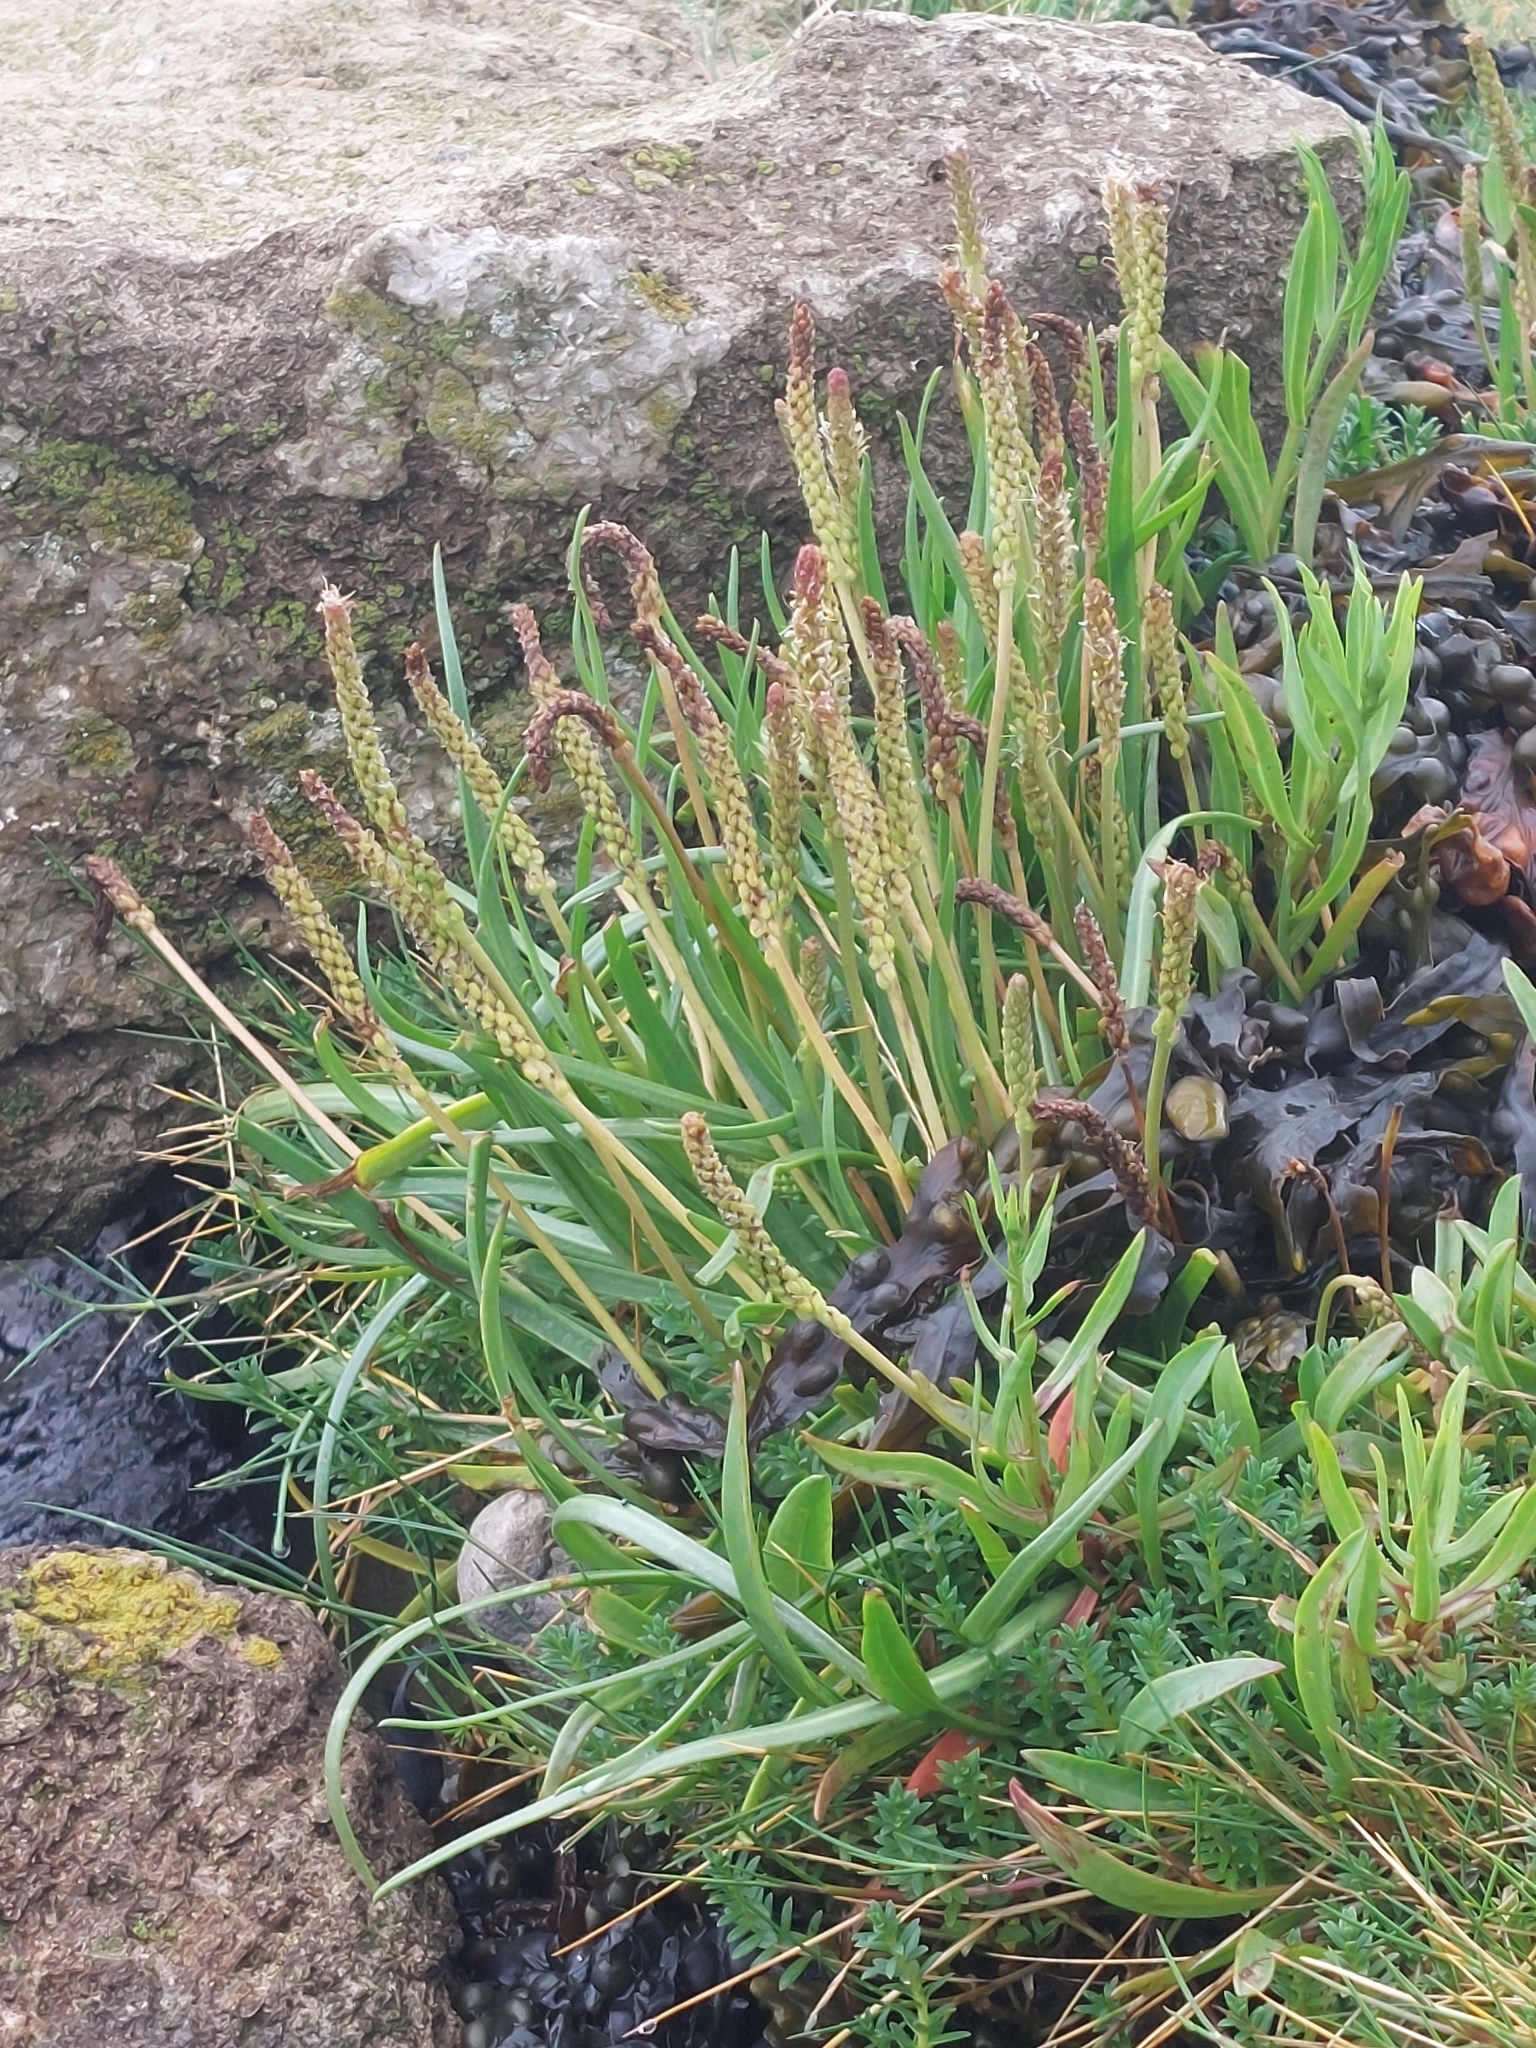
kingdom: Plantae
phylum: Tracheophyta
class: Magnoliopsida
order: Lamiales
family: Plantaginaceae
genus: Plantago
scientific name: Plantago maritima
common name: Sea plantain
